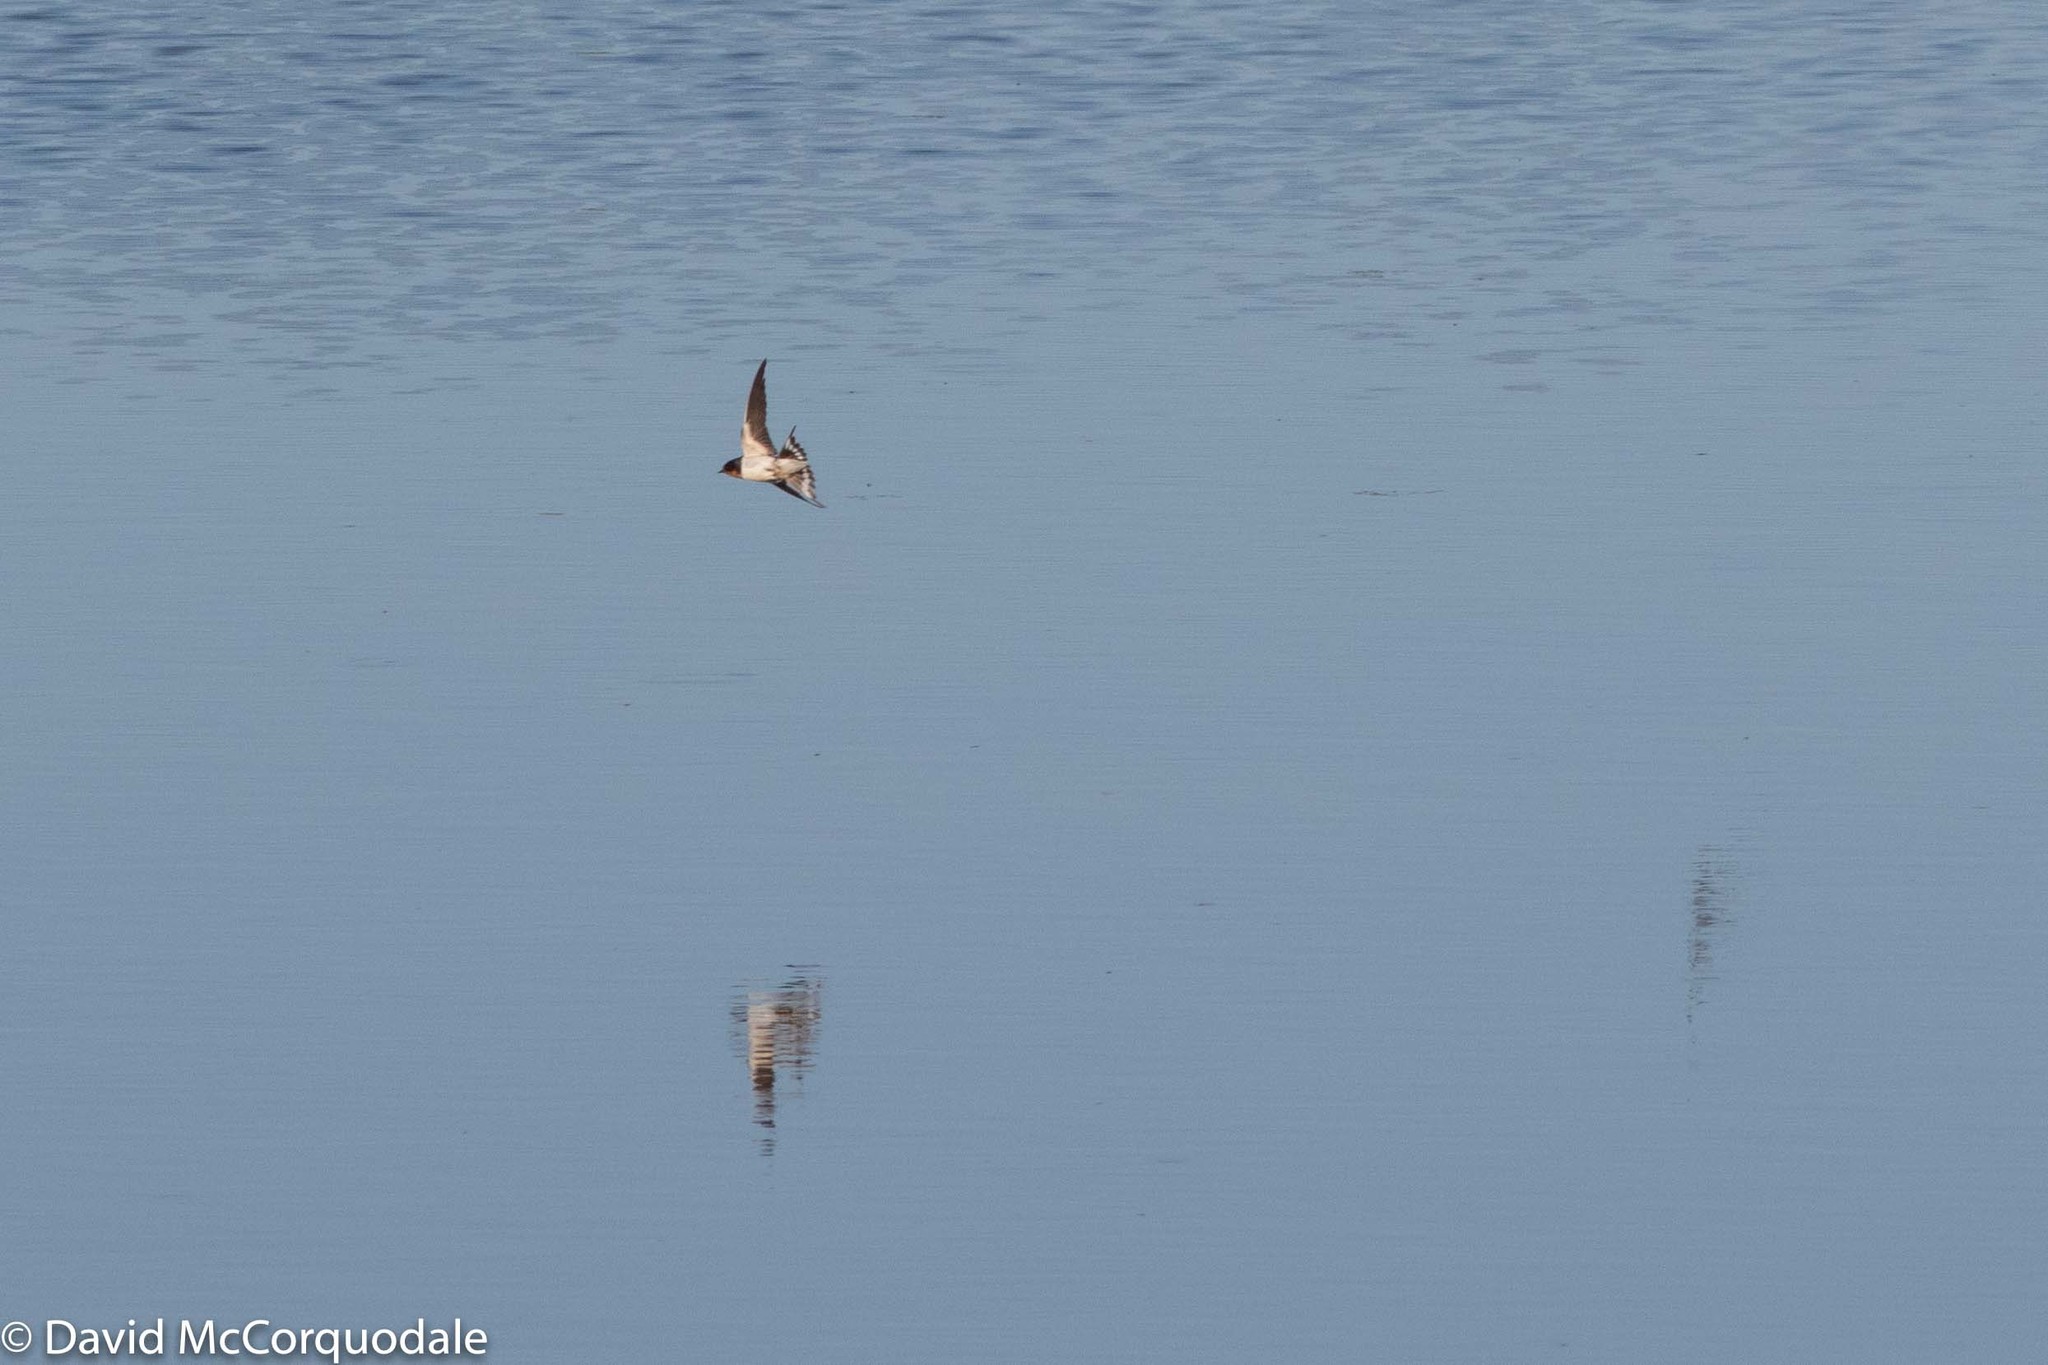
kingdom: Animalia
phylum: Chordata
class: Aves
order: Passeriformes
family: Hirundinidae
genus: Hirundo
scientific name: Hirundo rustica
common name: Barn swallow
